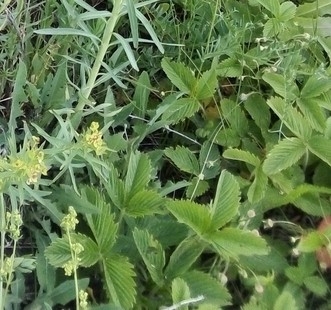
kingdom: Plantae
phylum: Tracheophyta
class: Magnoliopsida
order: Rosales
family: Rosaceae
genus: Fragaria
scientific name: Fragaria viridis
